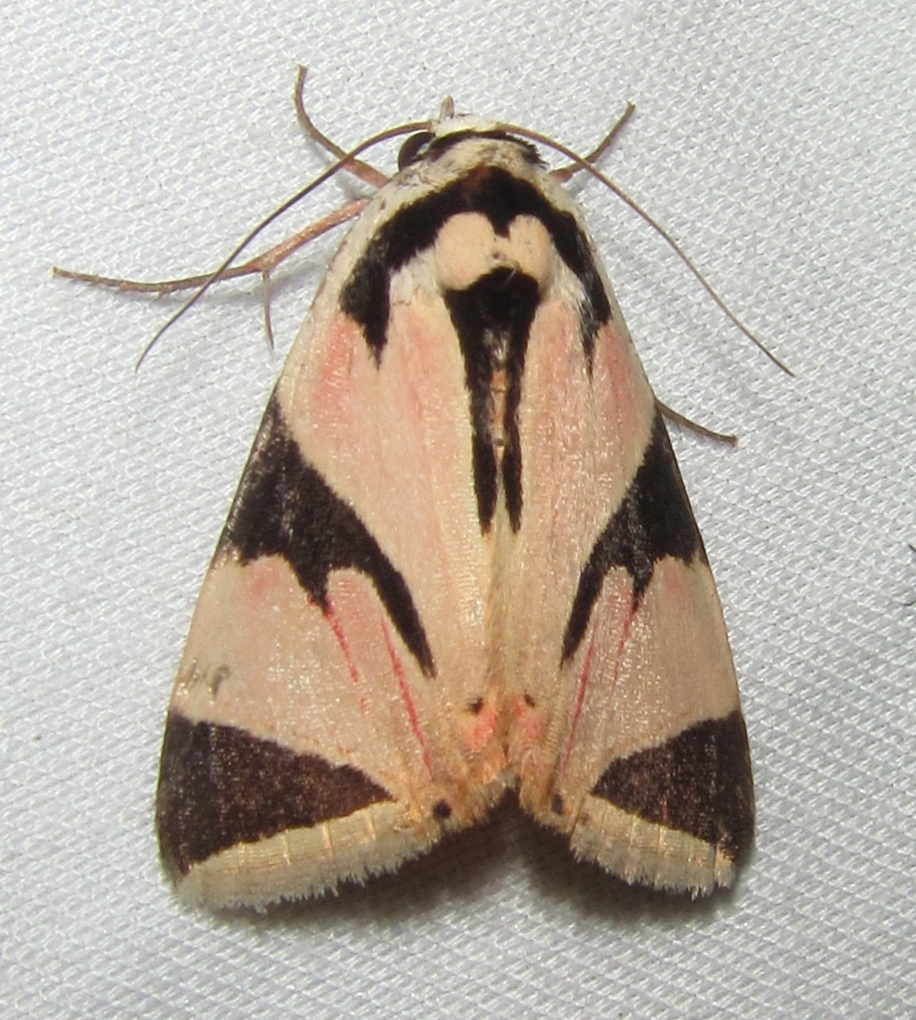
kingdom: Animalia
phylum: Arthropoda
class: Insecta
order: Lepidoptera
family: Erebidae
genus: Attatha
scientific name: Attatha barlowi
